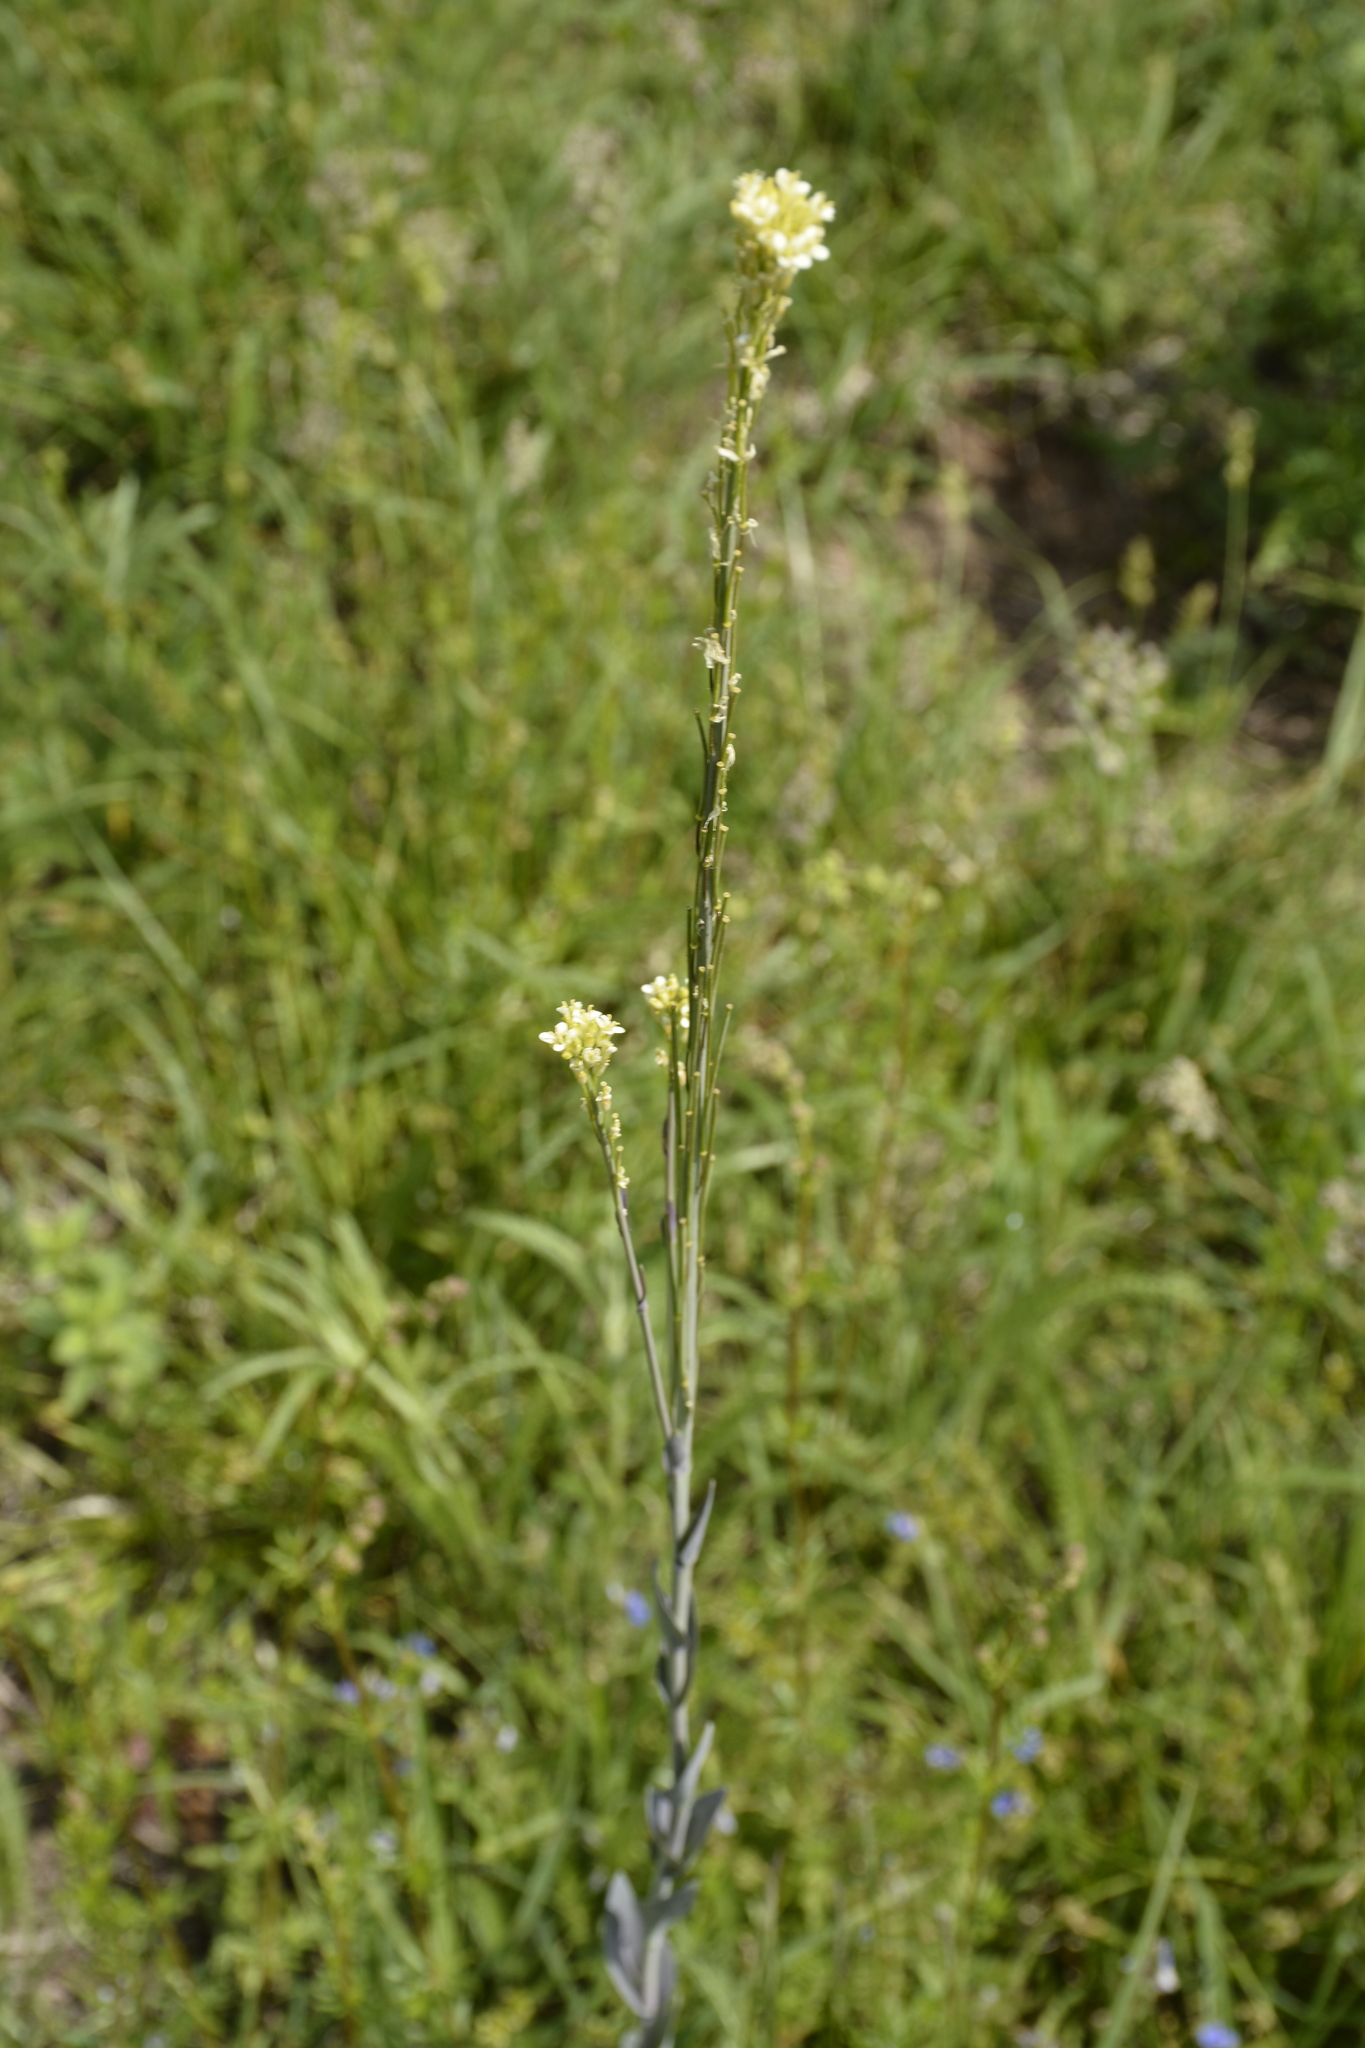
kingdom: Plantae
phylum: Tracheophyta
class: Magnoliopsida
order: Brassicales
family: Brassicaceae
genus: Turritis
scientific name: Turritis glabra
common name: Tower rockcress
